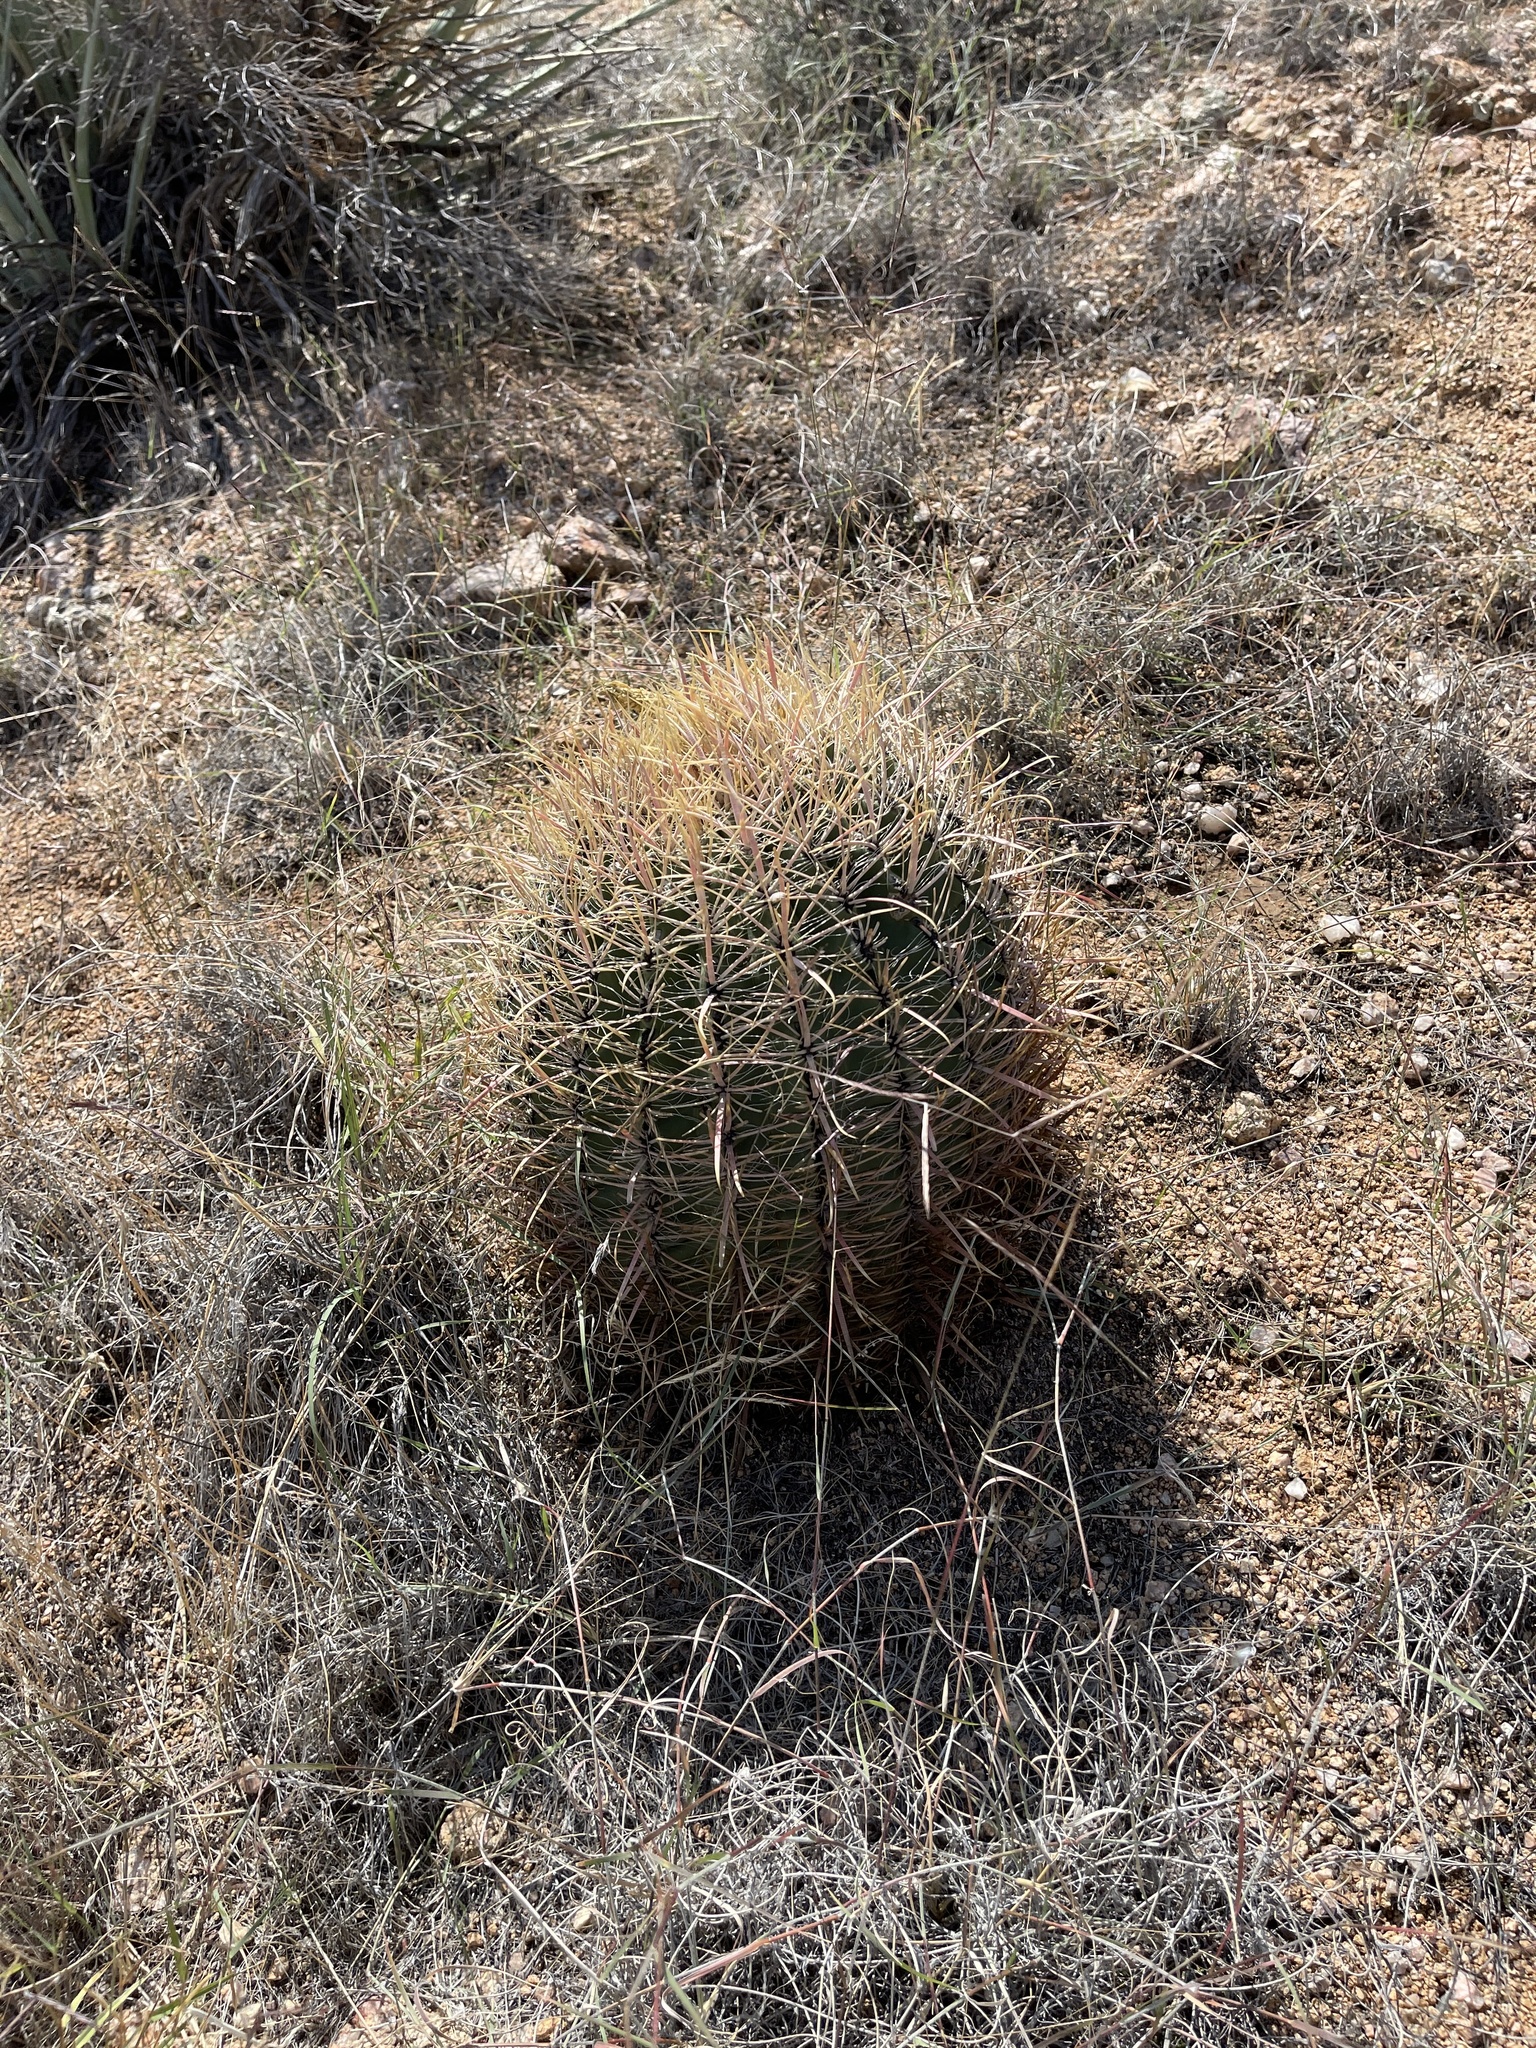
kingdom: Plantae
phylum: Tracheophyta
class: Magnoliopsida
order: Caryophyllales
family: Cactaceae
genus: Ferocactus
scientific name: Ferocactus cylindraceus
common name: California barrel cactus
